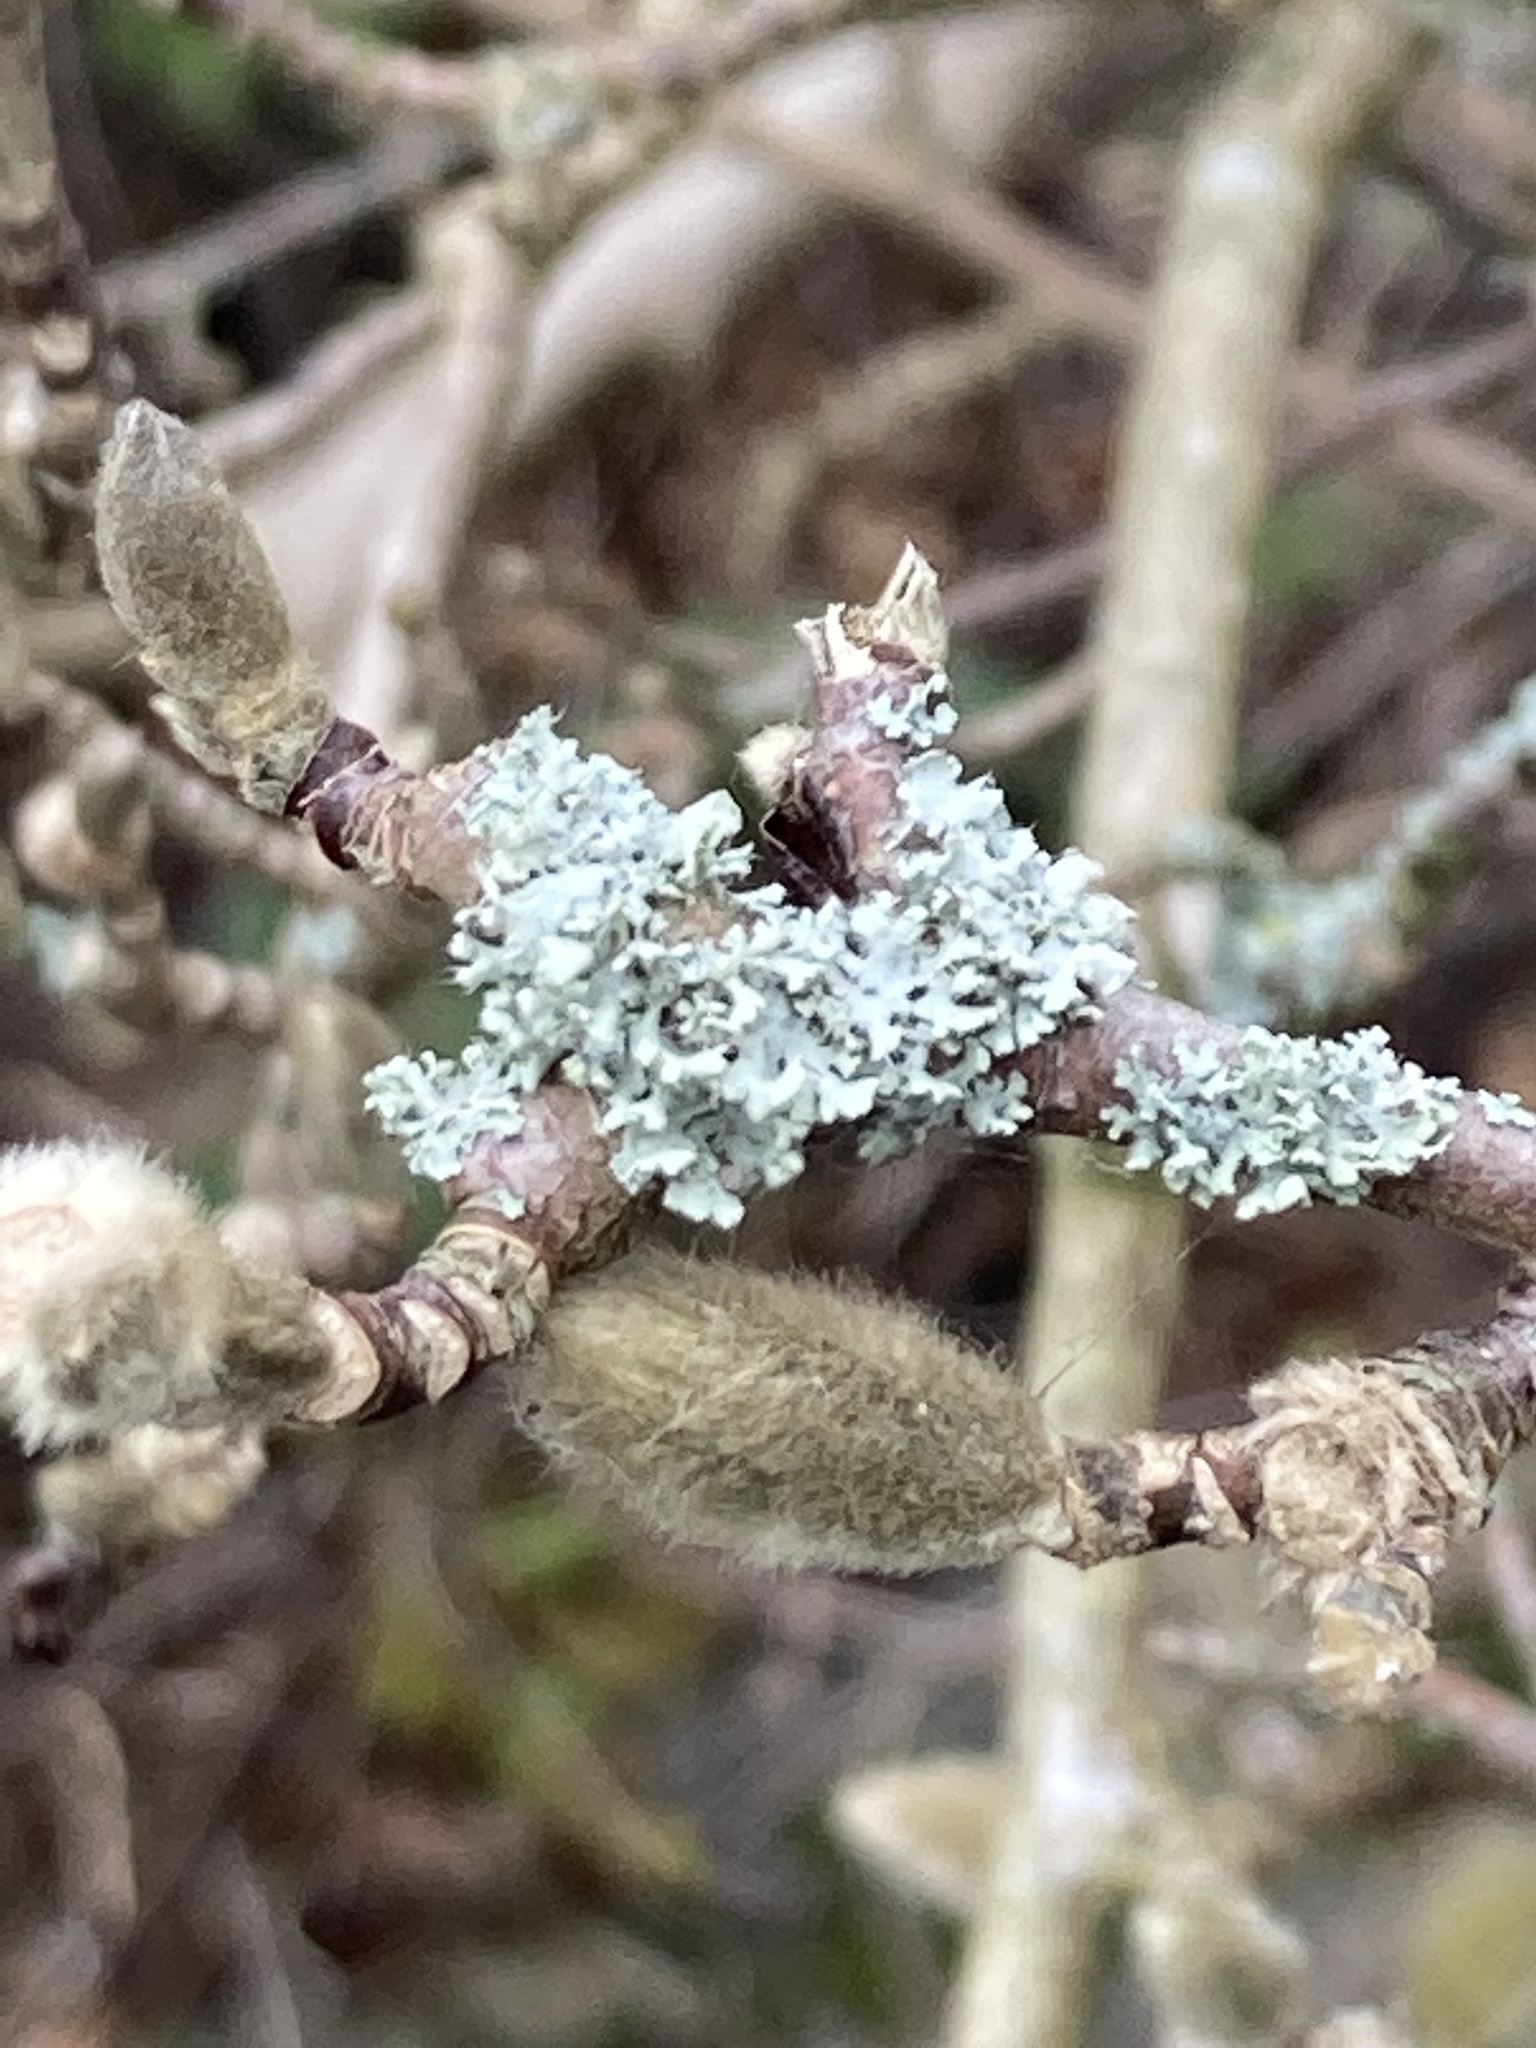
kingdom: Fungi
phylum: Ascomycota
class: Lecanoromycetes
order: Caliciales
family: Physciaceae
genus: Physcia
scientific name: Physcia adscendens
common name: Hooded rosette lichen
